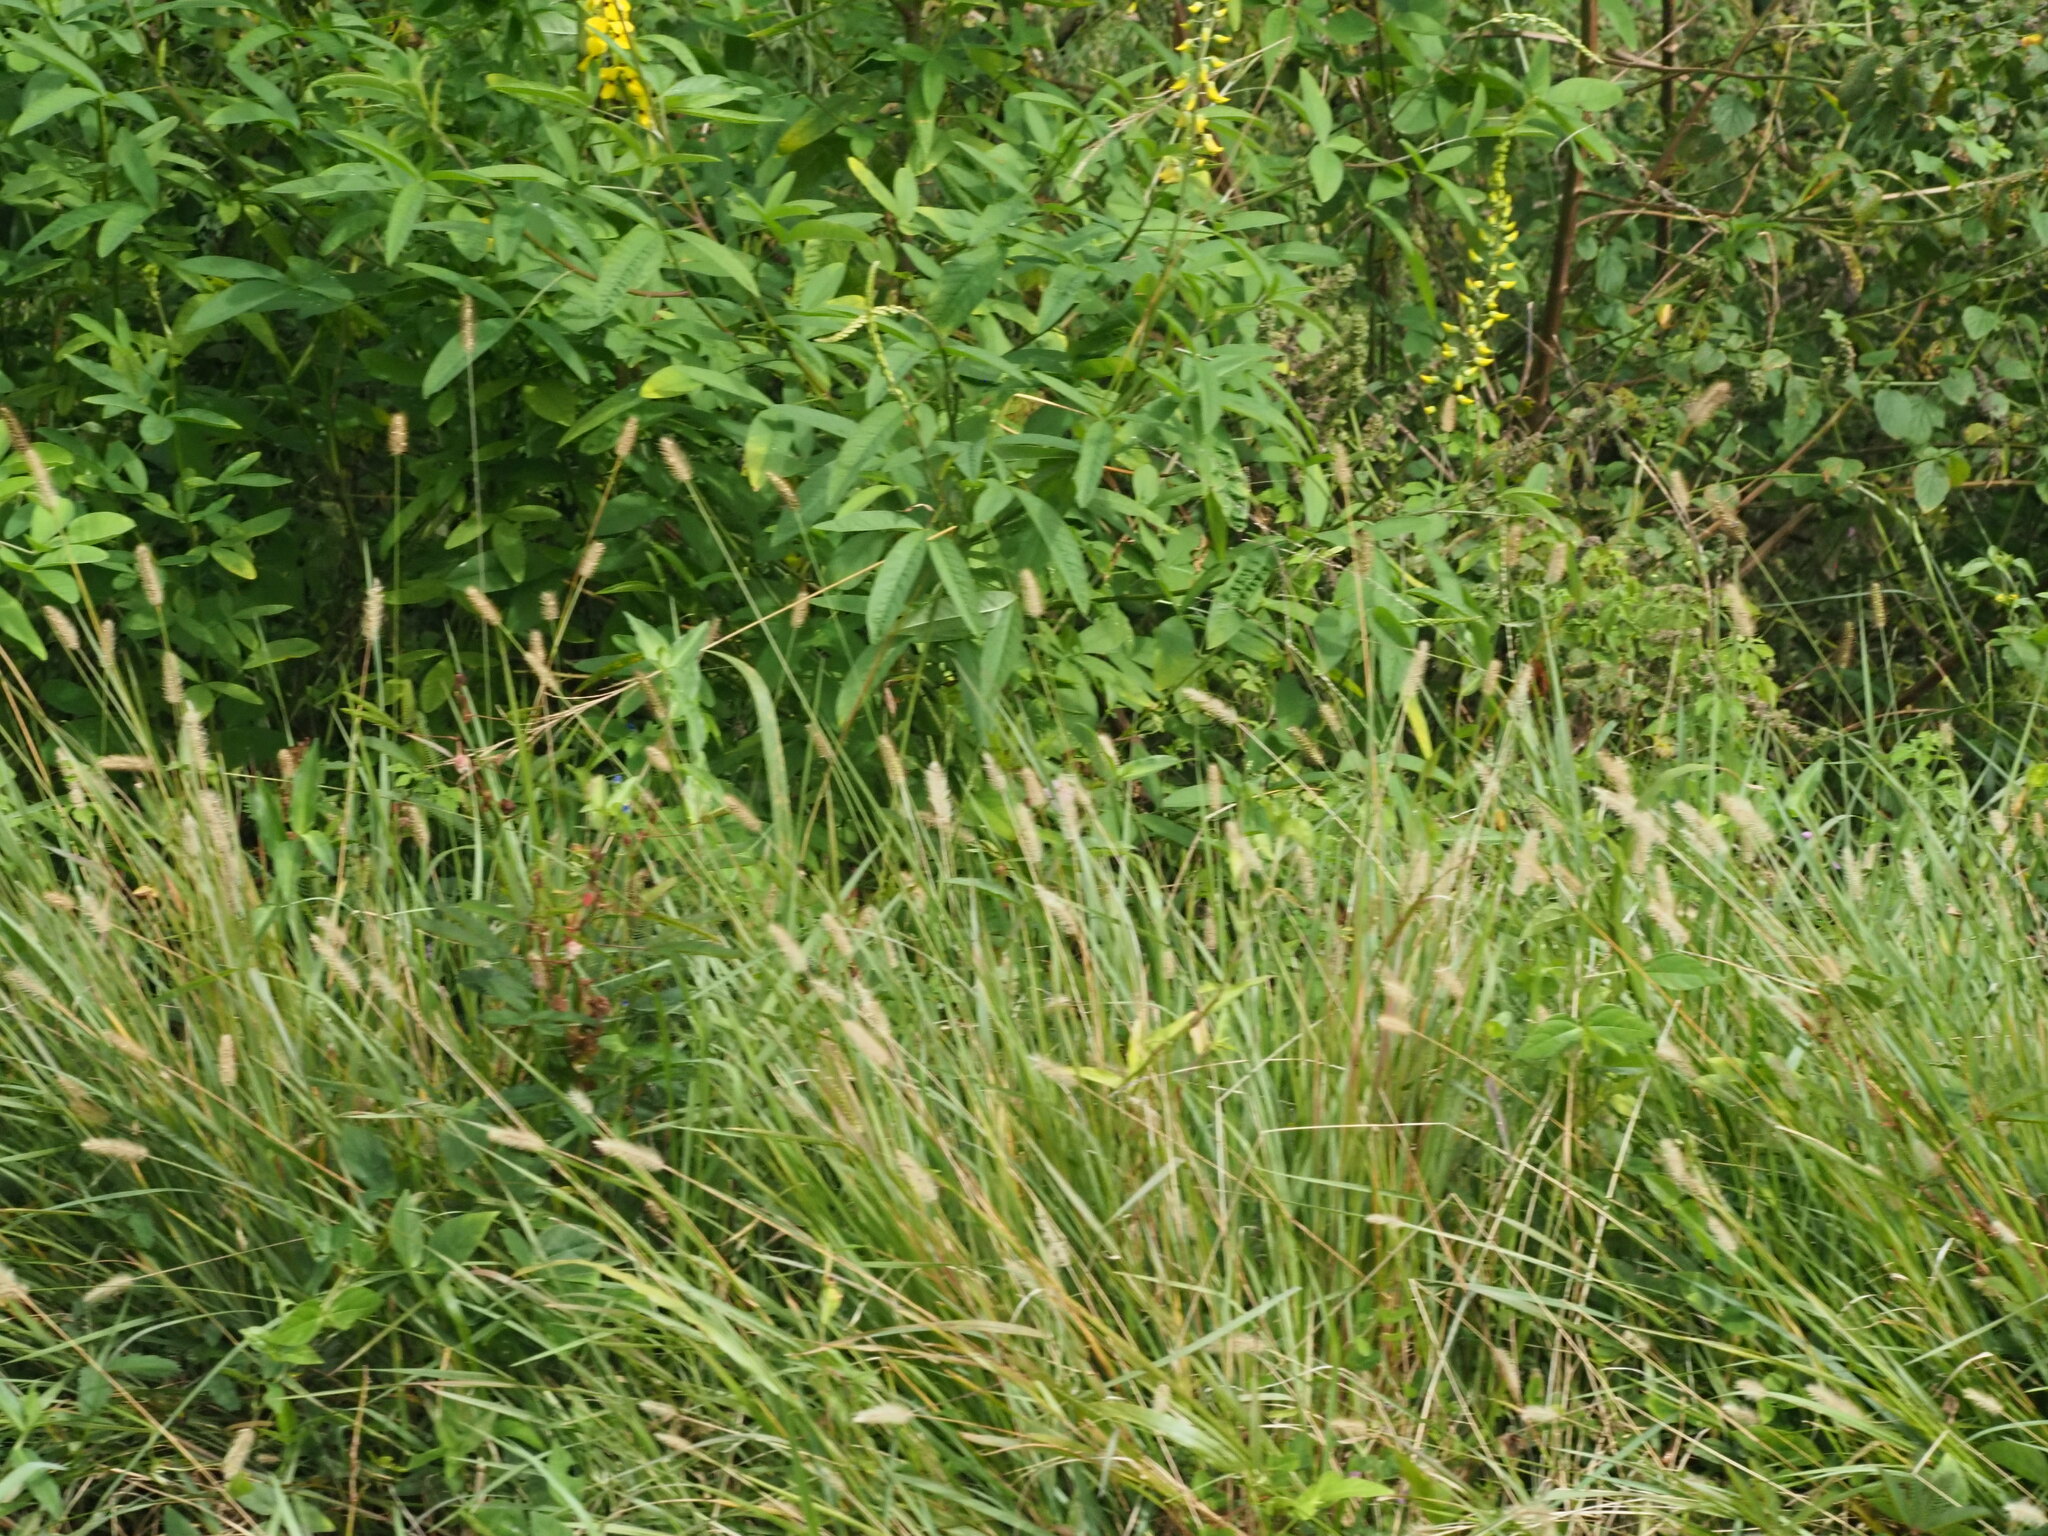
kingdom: Plantae
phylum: Tracheophyta
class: Liliopsida
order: Poales
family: Poaceae
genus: Setaria
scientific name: Setaria parviflora
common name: Knotroot bristle-grass
